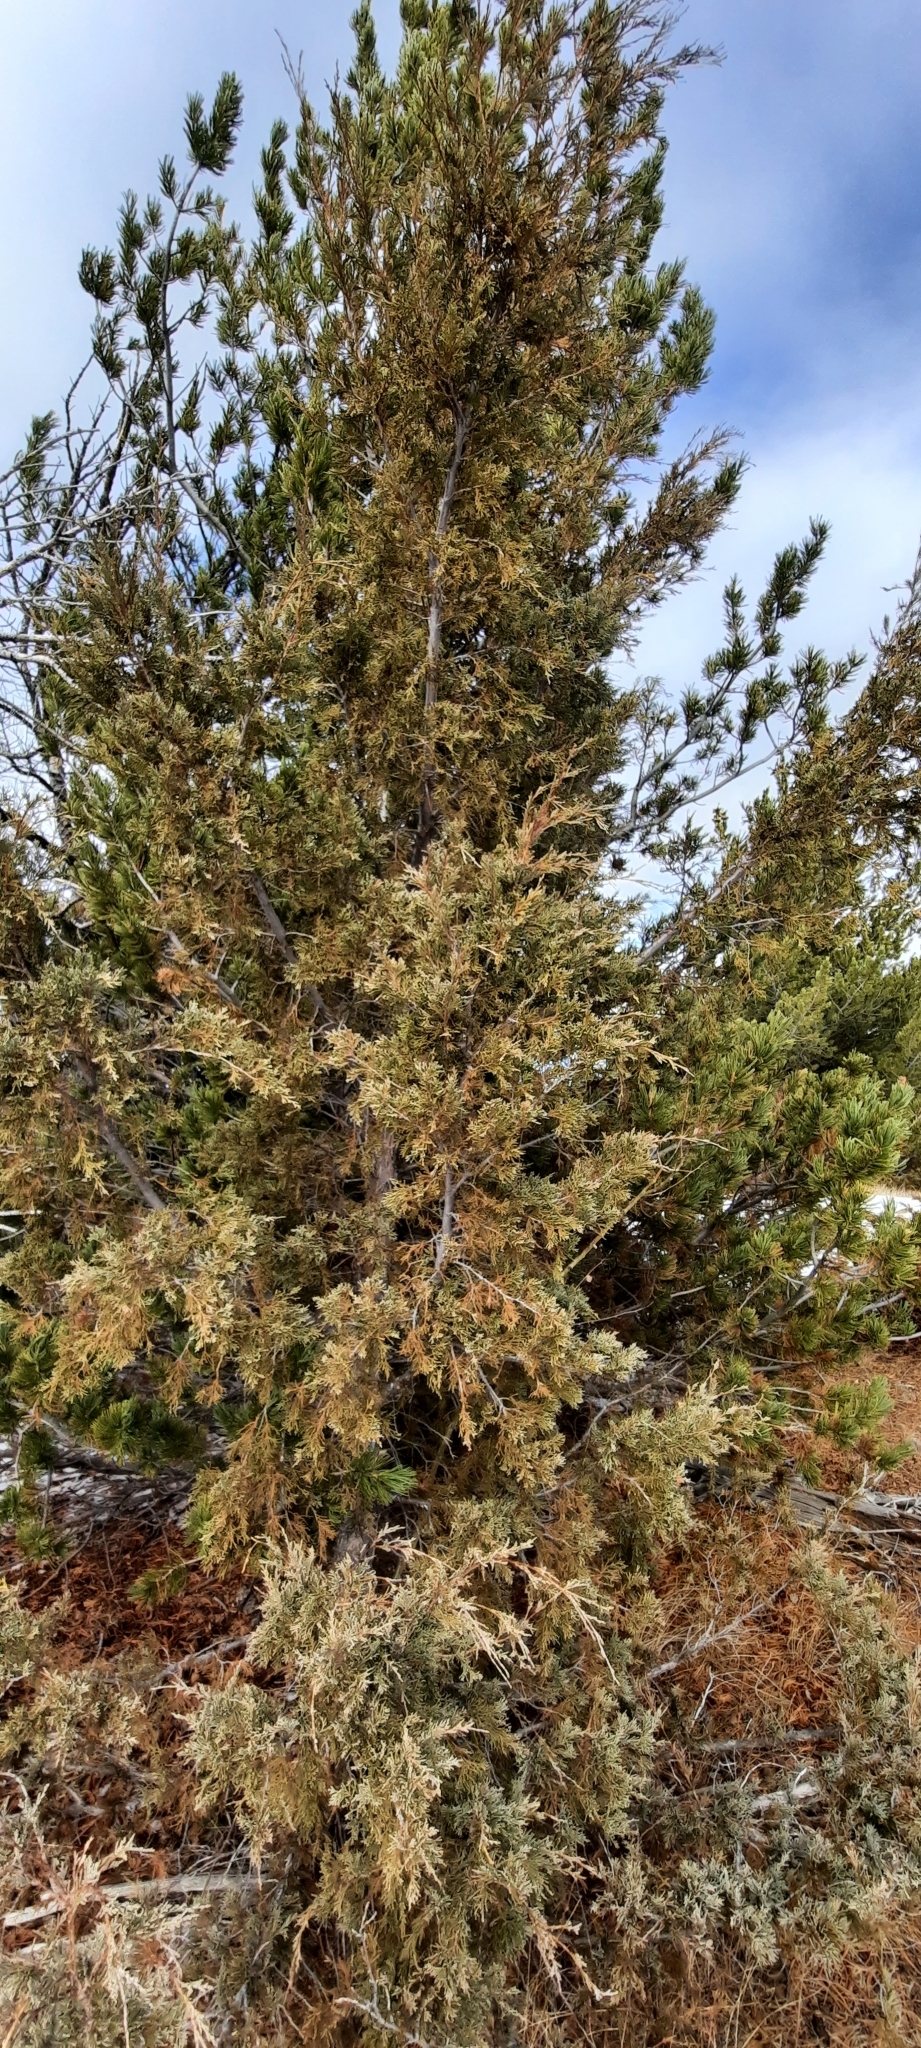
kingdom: Plantae
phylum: Tracheophyta
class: Pinopsida
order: Pinales
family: Cupressaceae
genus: Juniperus
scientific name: Juniperus scopulorum
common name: Rocky mountain juniper
